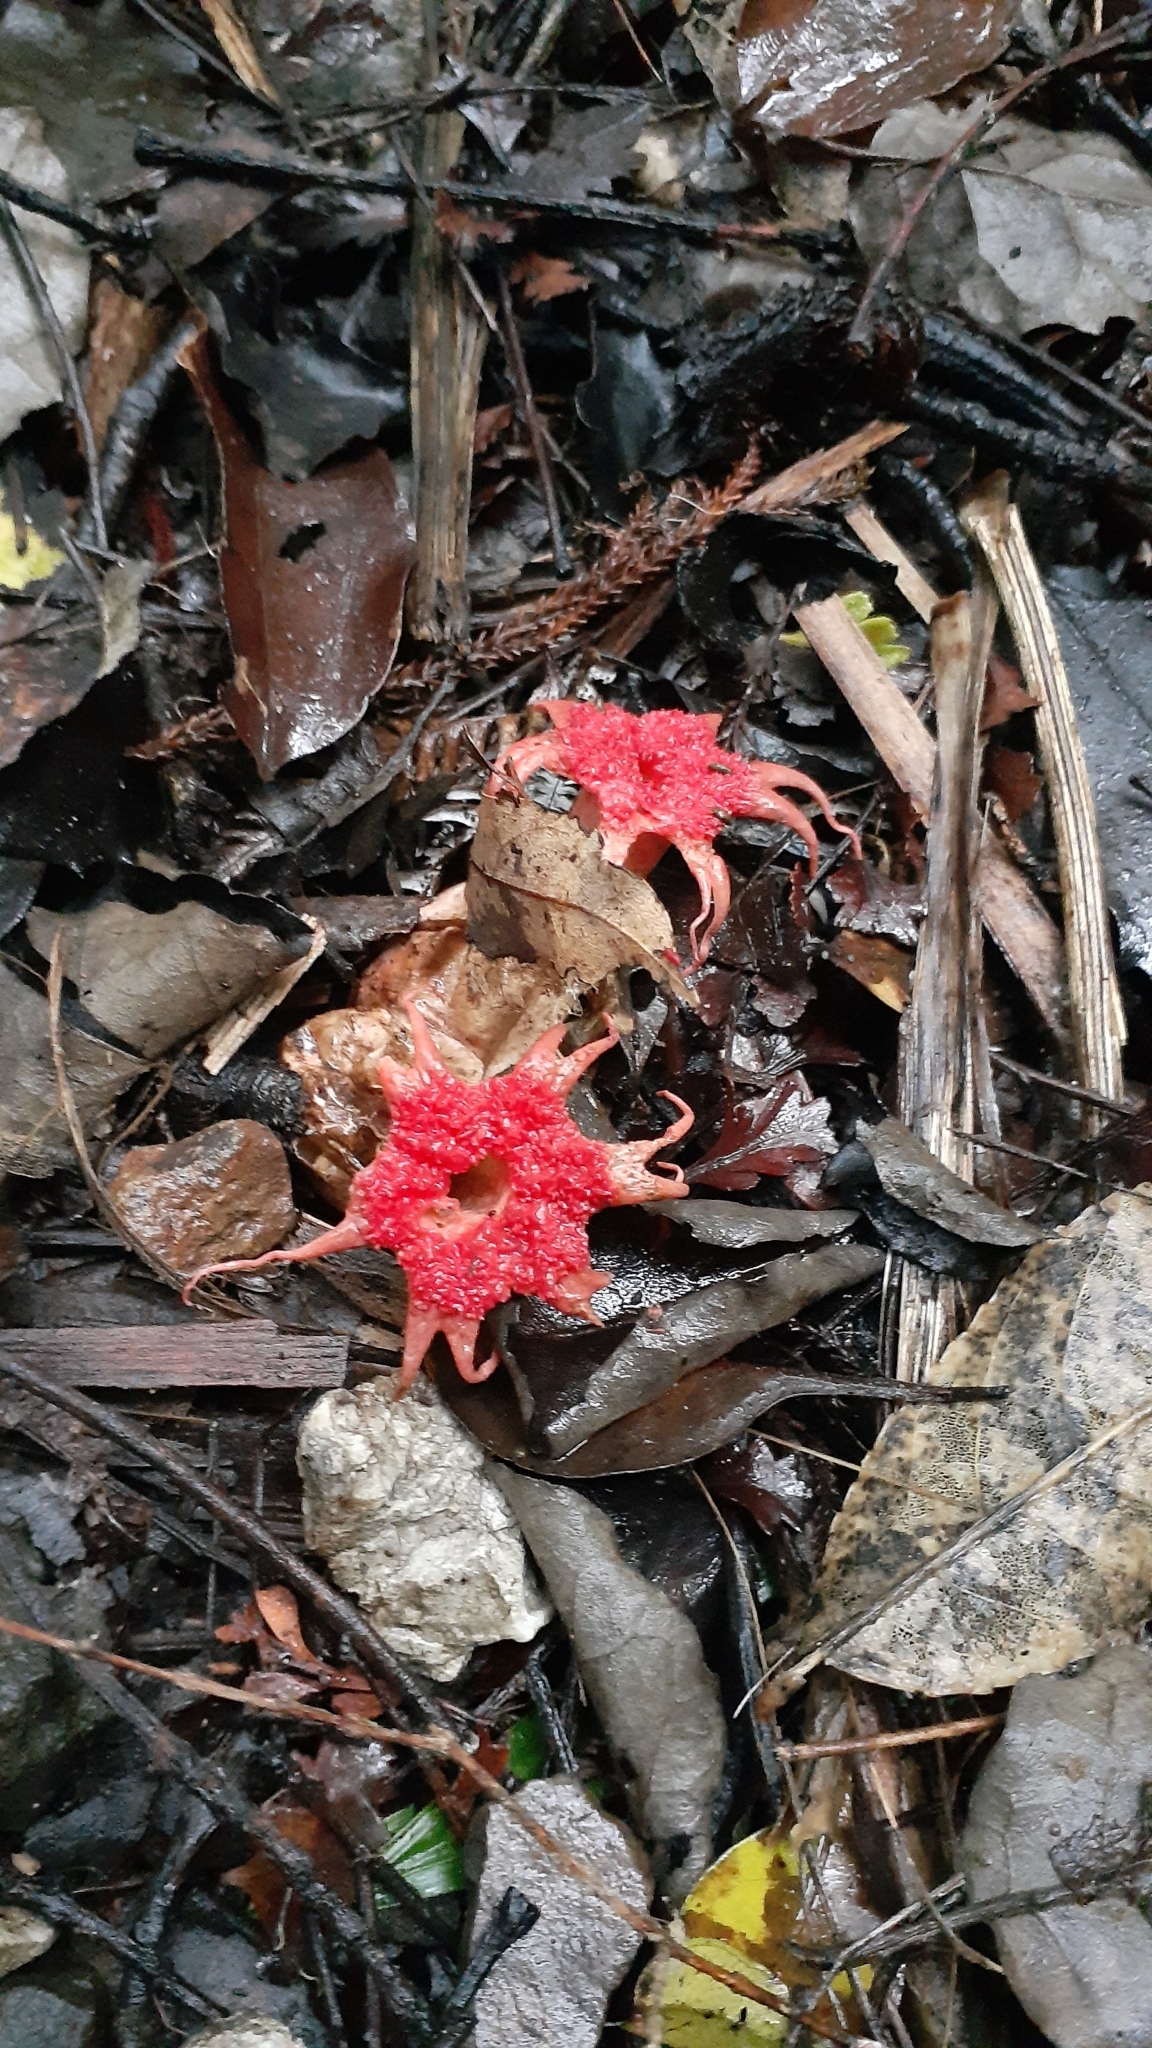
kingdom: Fungi
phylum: Basidiomycota
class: Agaricomycetes
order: Phallales
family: Phallaceae
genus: Aseroe
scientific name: Aseroe rubra
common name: Starfish fungus
